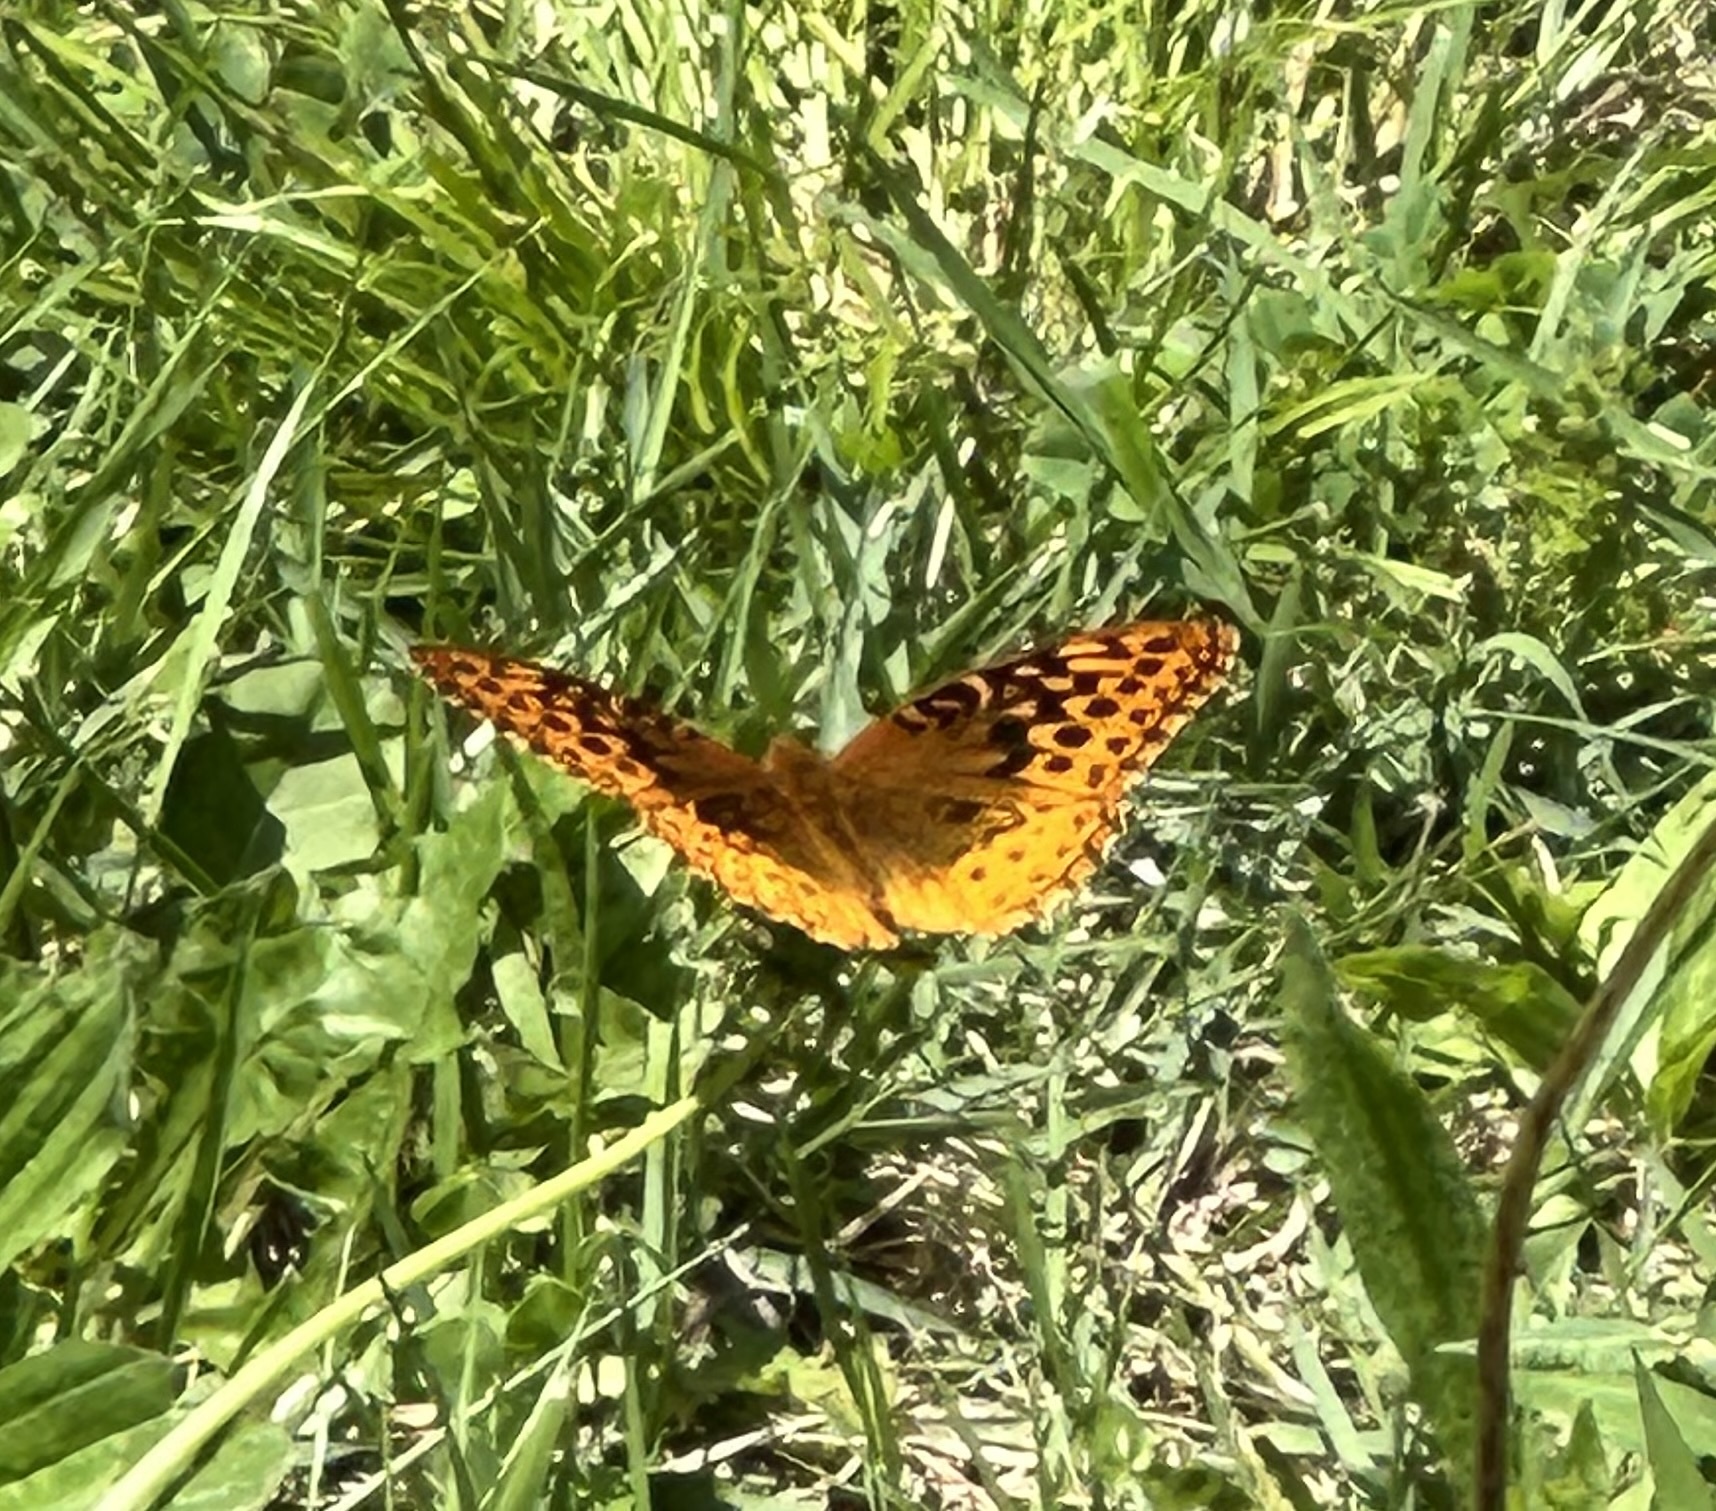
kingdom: Animalia
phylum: Arthropoda
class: Insecta
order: Lepidoptera
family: Nymphalidae
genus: Speyeria
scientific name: Speyeria cybele
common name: Great spangled fritillary
